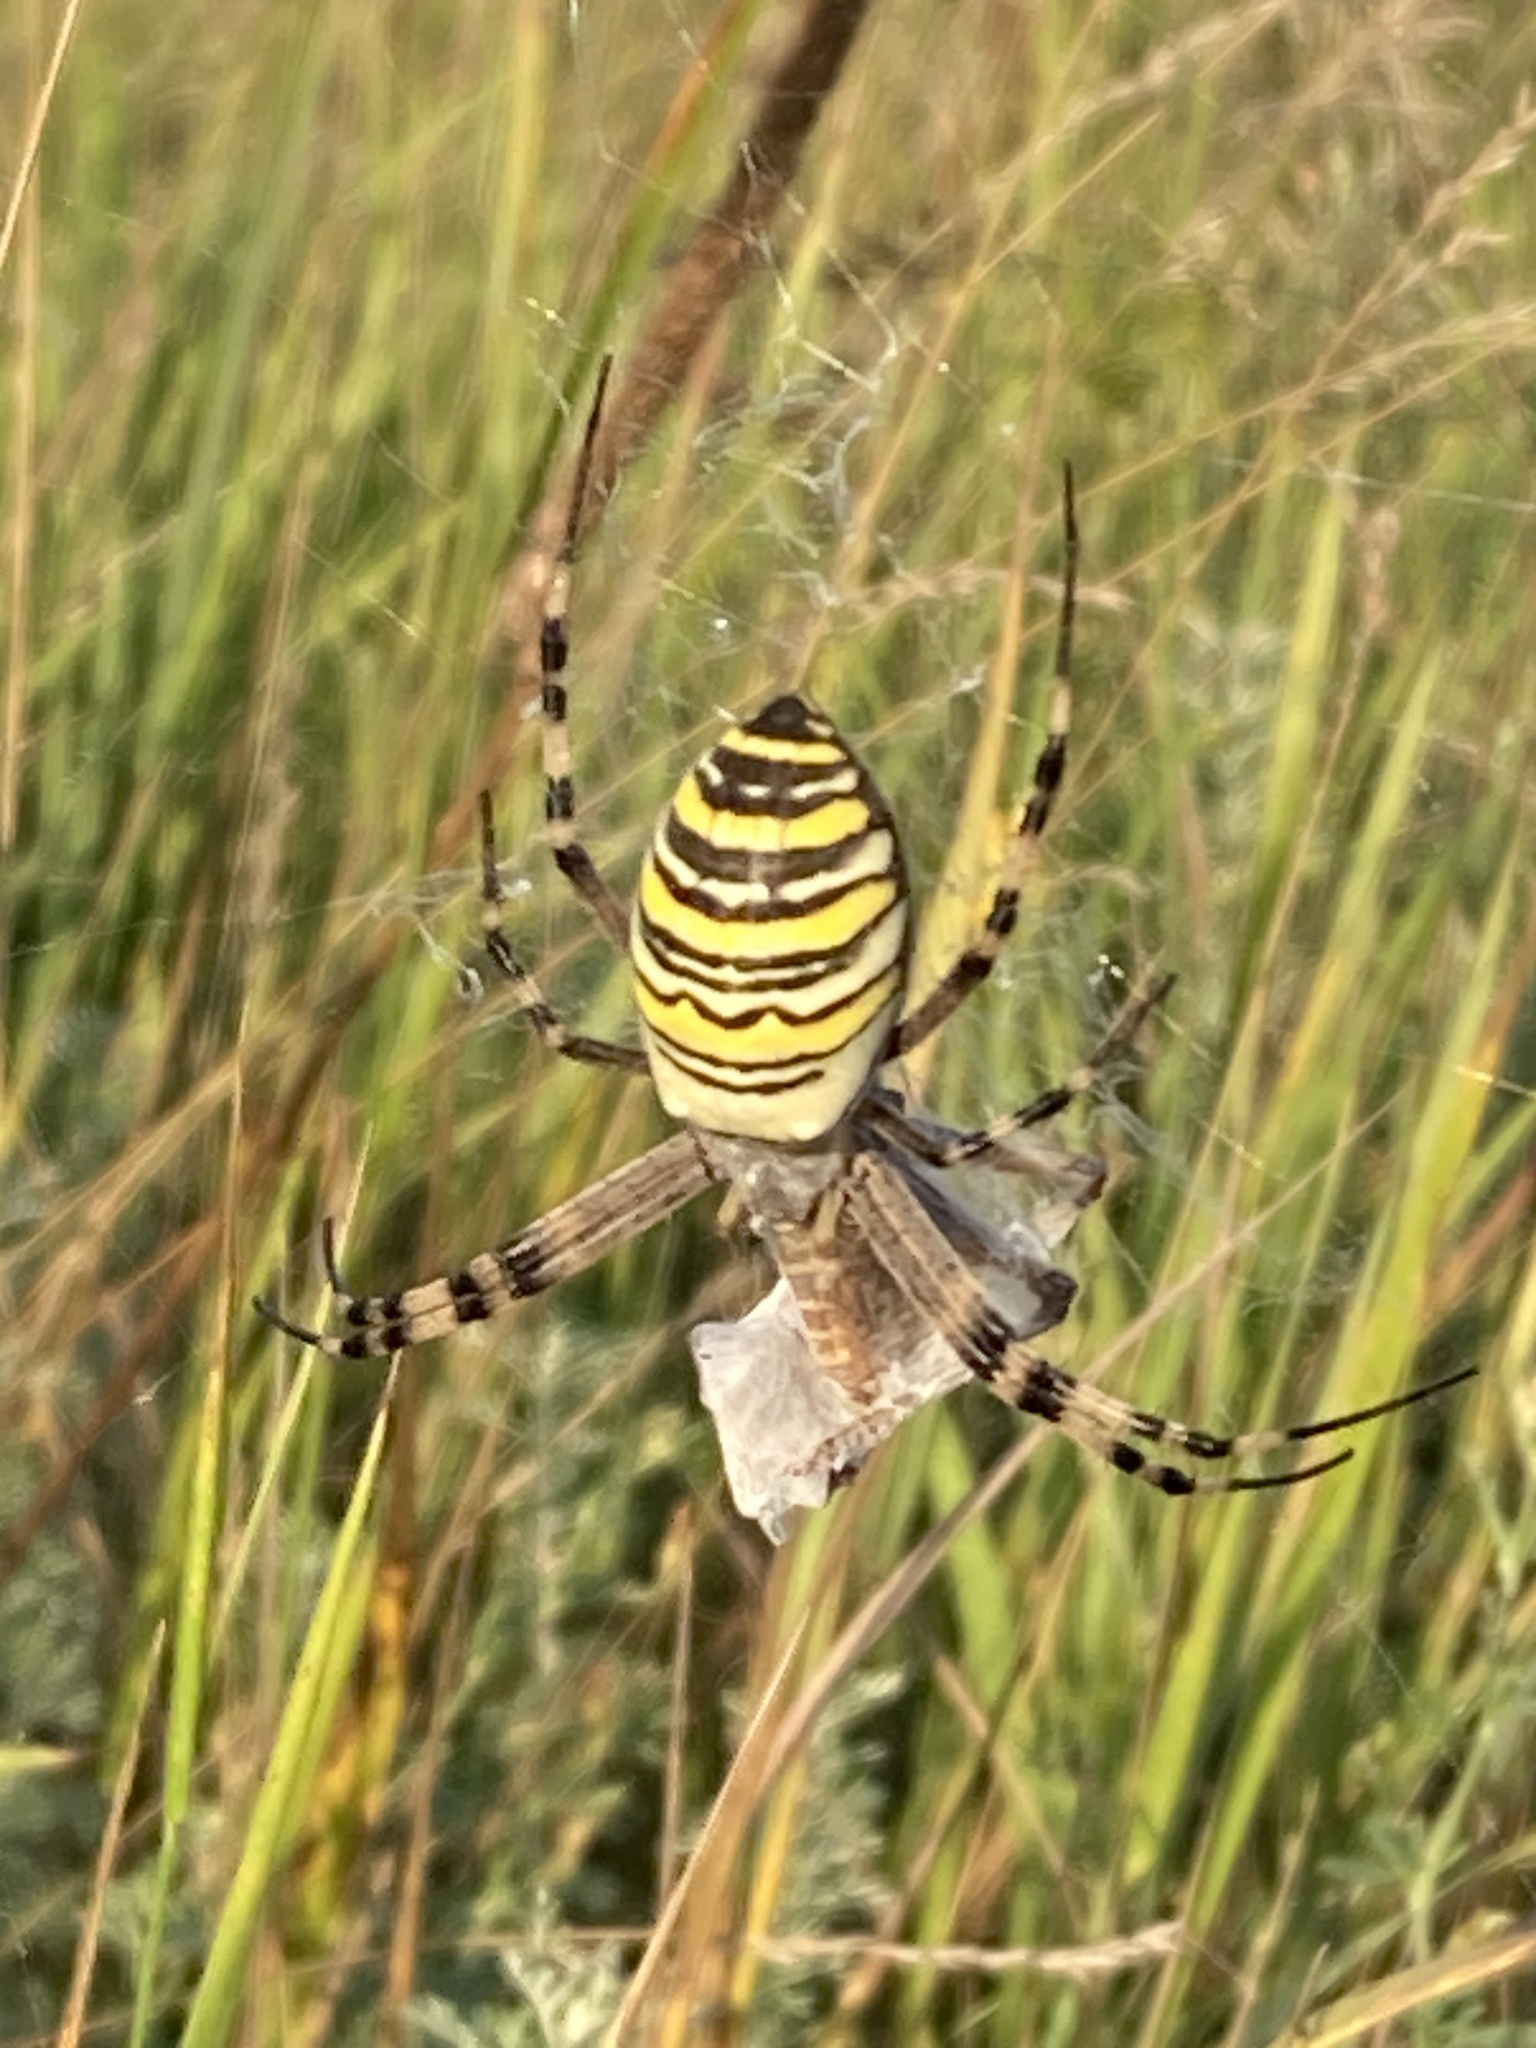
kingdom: Animalia
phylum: Arthropoda
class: Arachnida
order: Araneae
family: Araneidae
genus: Argiope
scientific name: Argiope bruennichi
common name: Wasp spider
